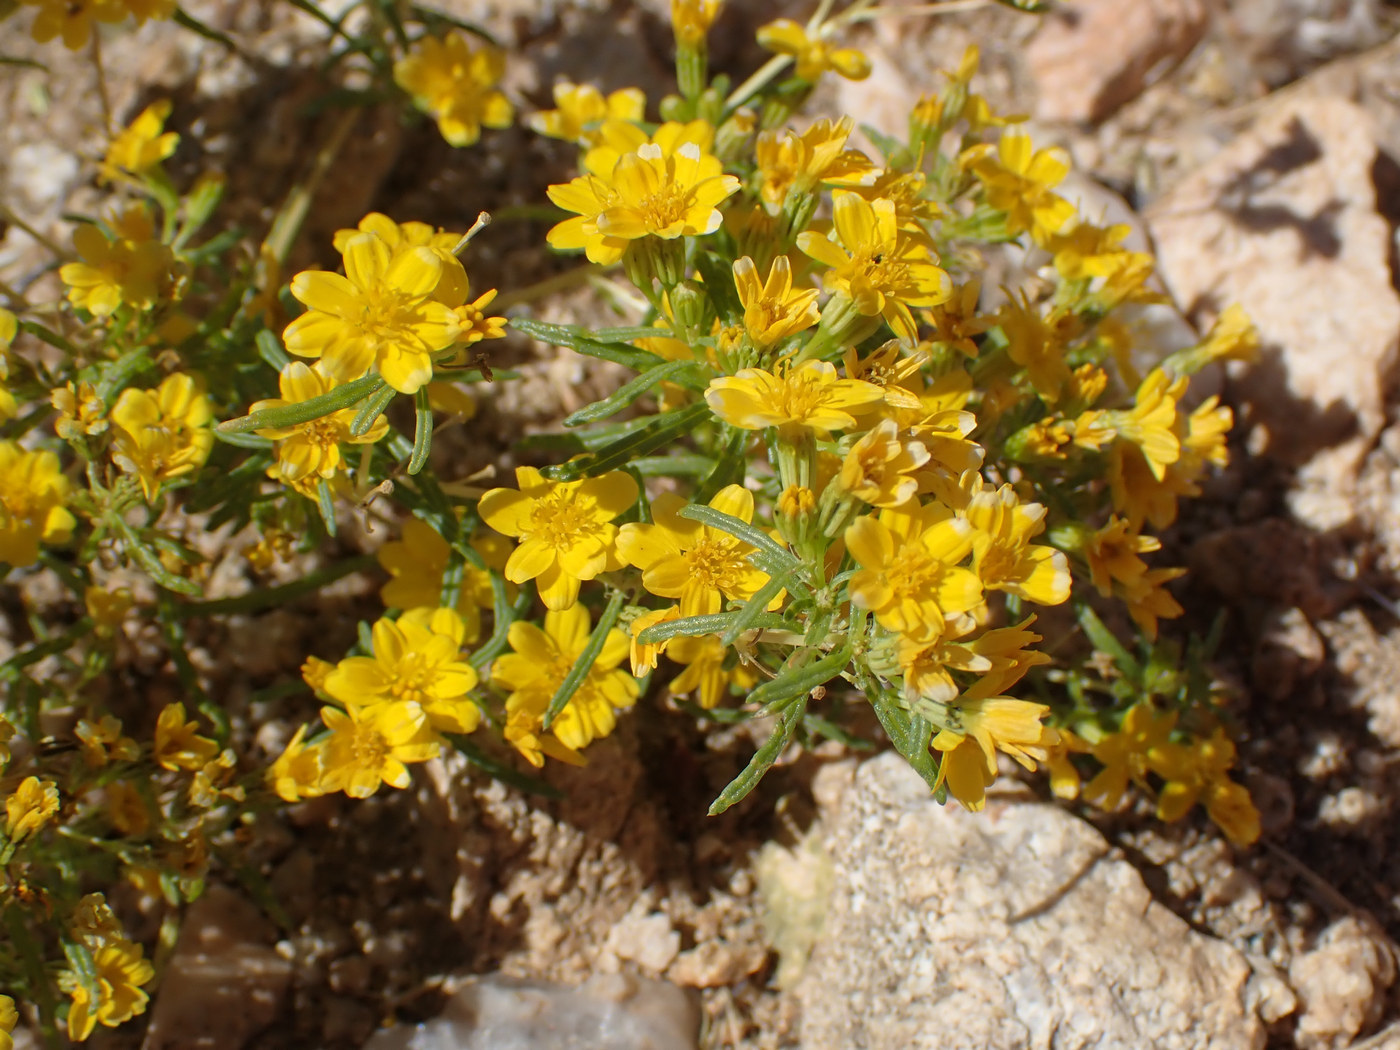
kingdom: Plantae
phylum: Tracheophyta
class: Magnoliopsida
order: Asterales
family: Asteraceae
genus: Pectis
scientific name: Pectis papposa
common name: Many-bristle chinchweed
